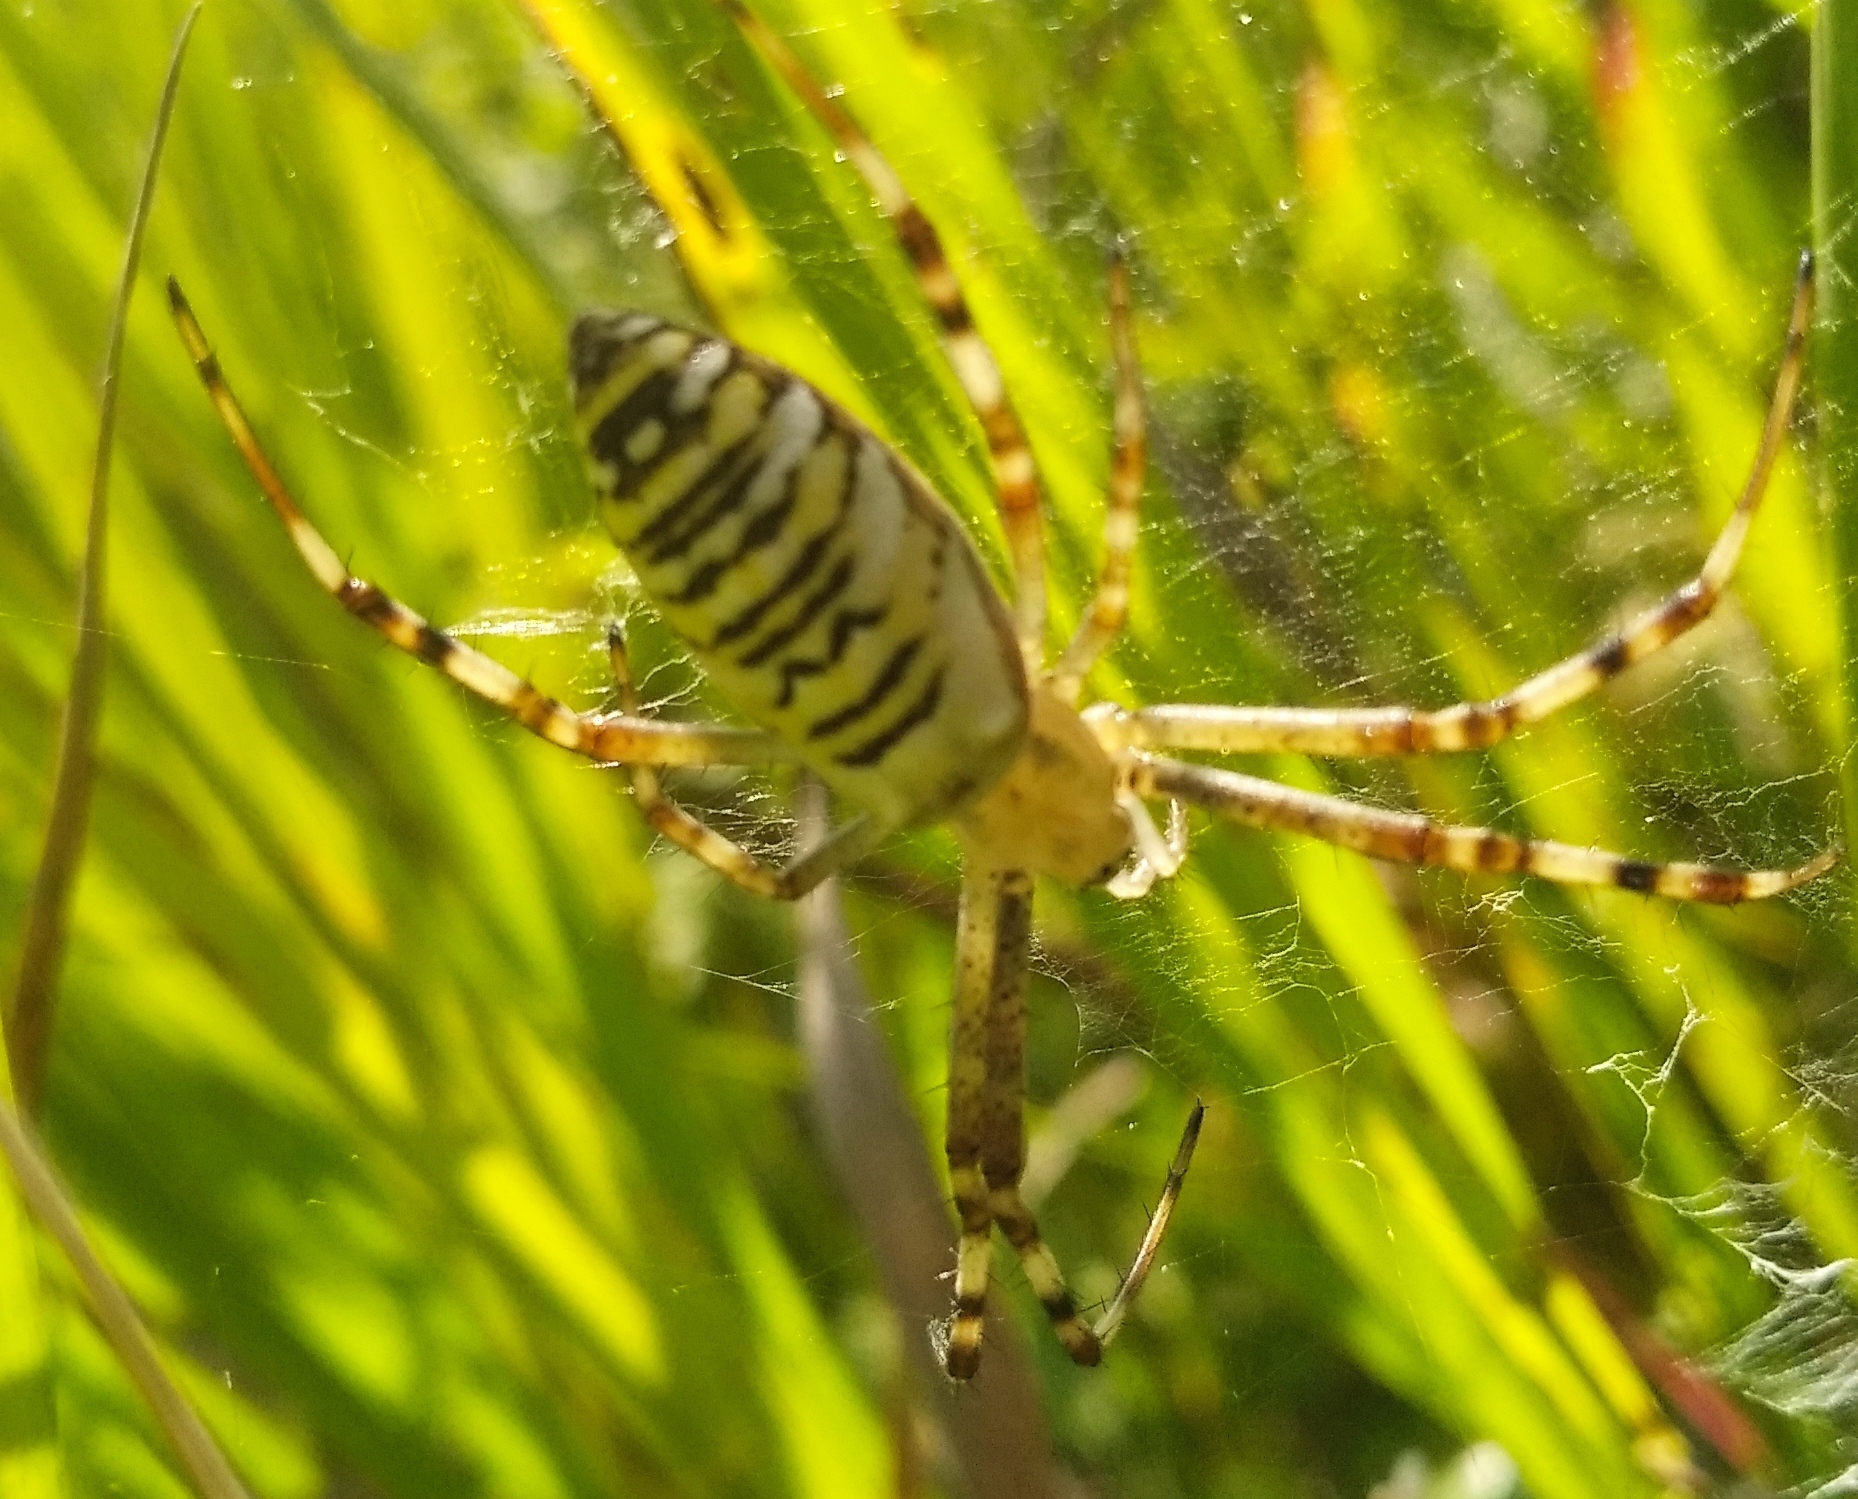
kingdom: Animalia
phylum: Arthropoda
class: Arachnida
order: Araneae
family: Araneidae
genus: Argiope
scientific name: Argiope bruennichi
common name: Wasp spider
